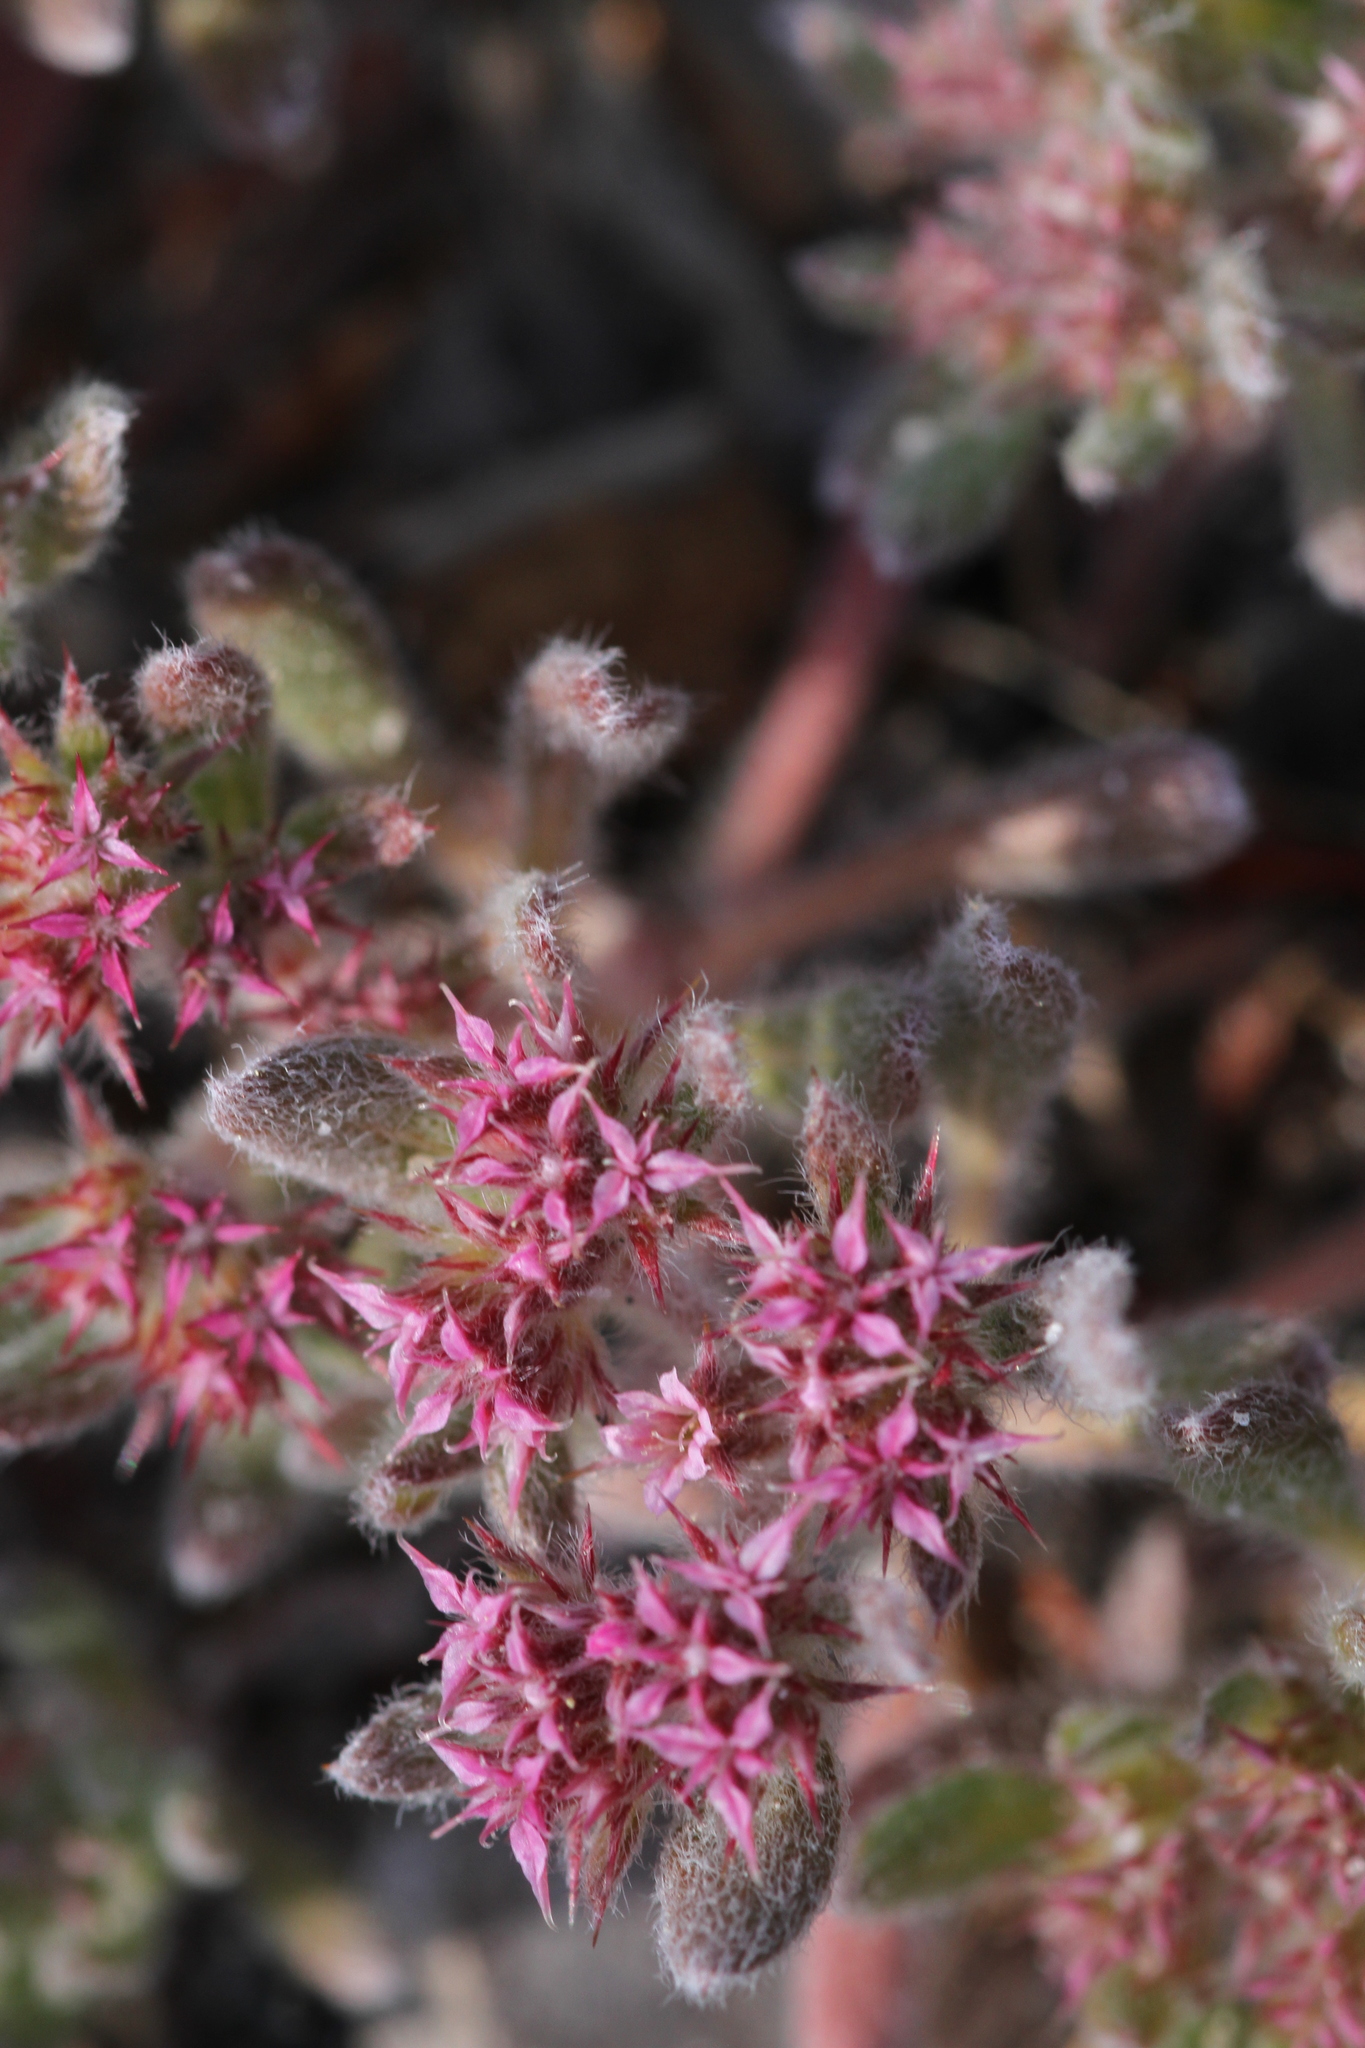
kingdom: Plantae
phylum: Tracheophyta
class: Magnoliopsida
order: Caryophyllales
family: Polygonaceae
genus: Chorizanthe
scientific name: Chorizanthe pungens
